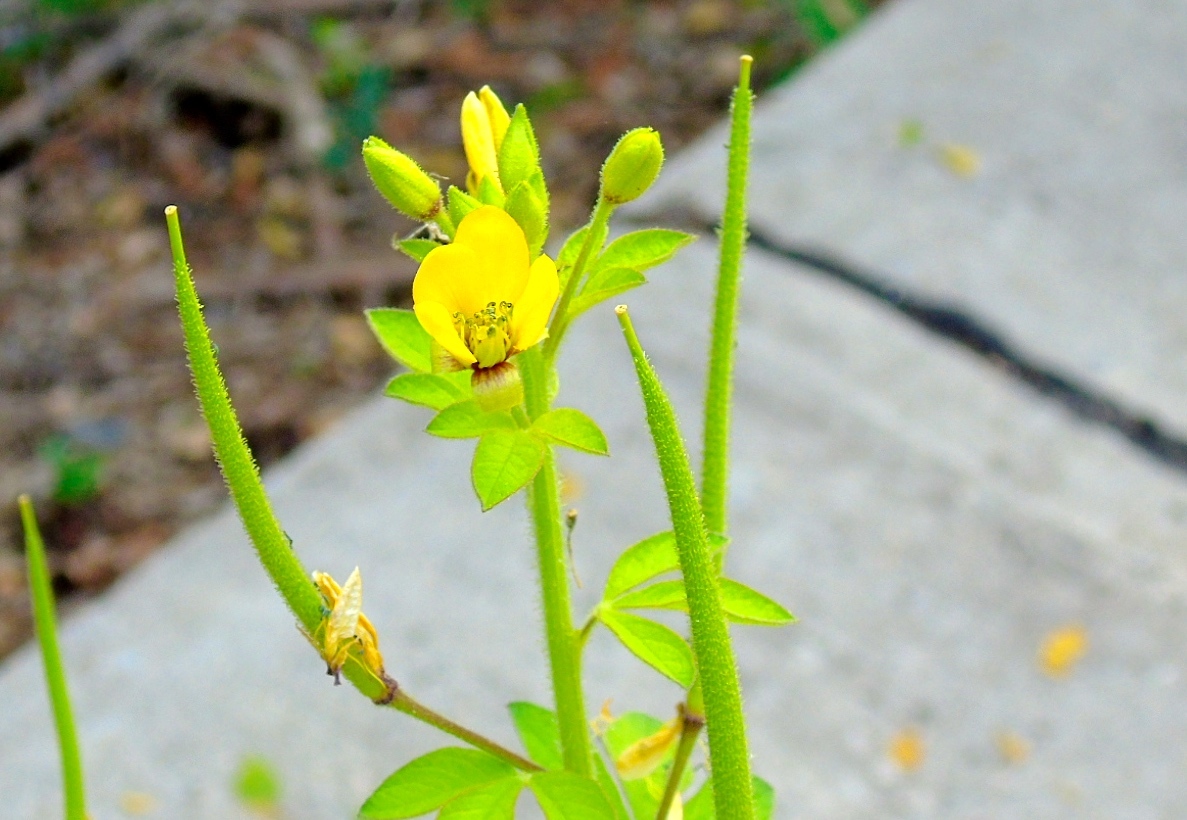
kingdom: Plantae
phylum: Tracheophyta
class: Magnoliopsida
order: Brassicales
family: Cleomaceae
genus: Arivela
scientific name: Arivela viscosa
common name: Asian spiderflower
